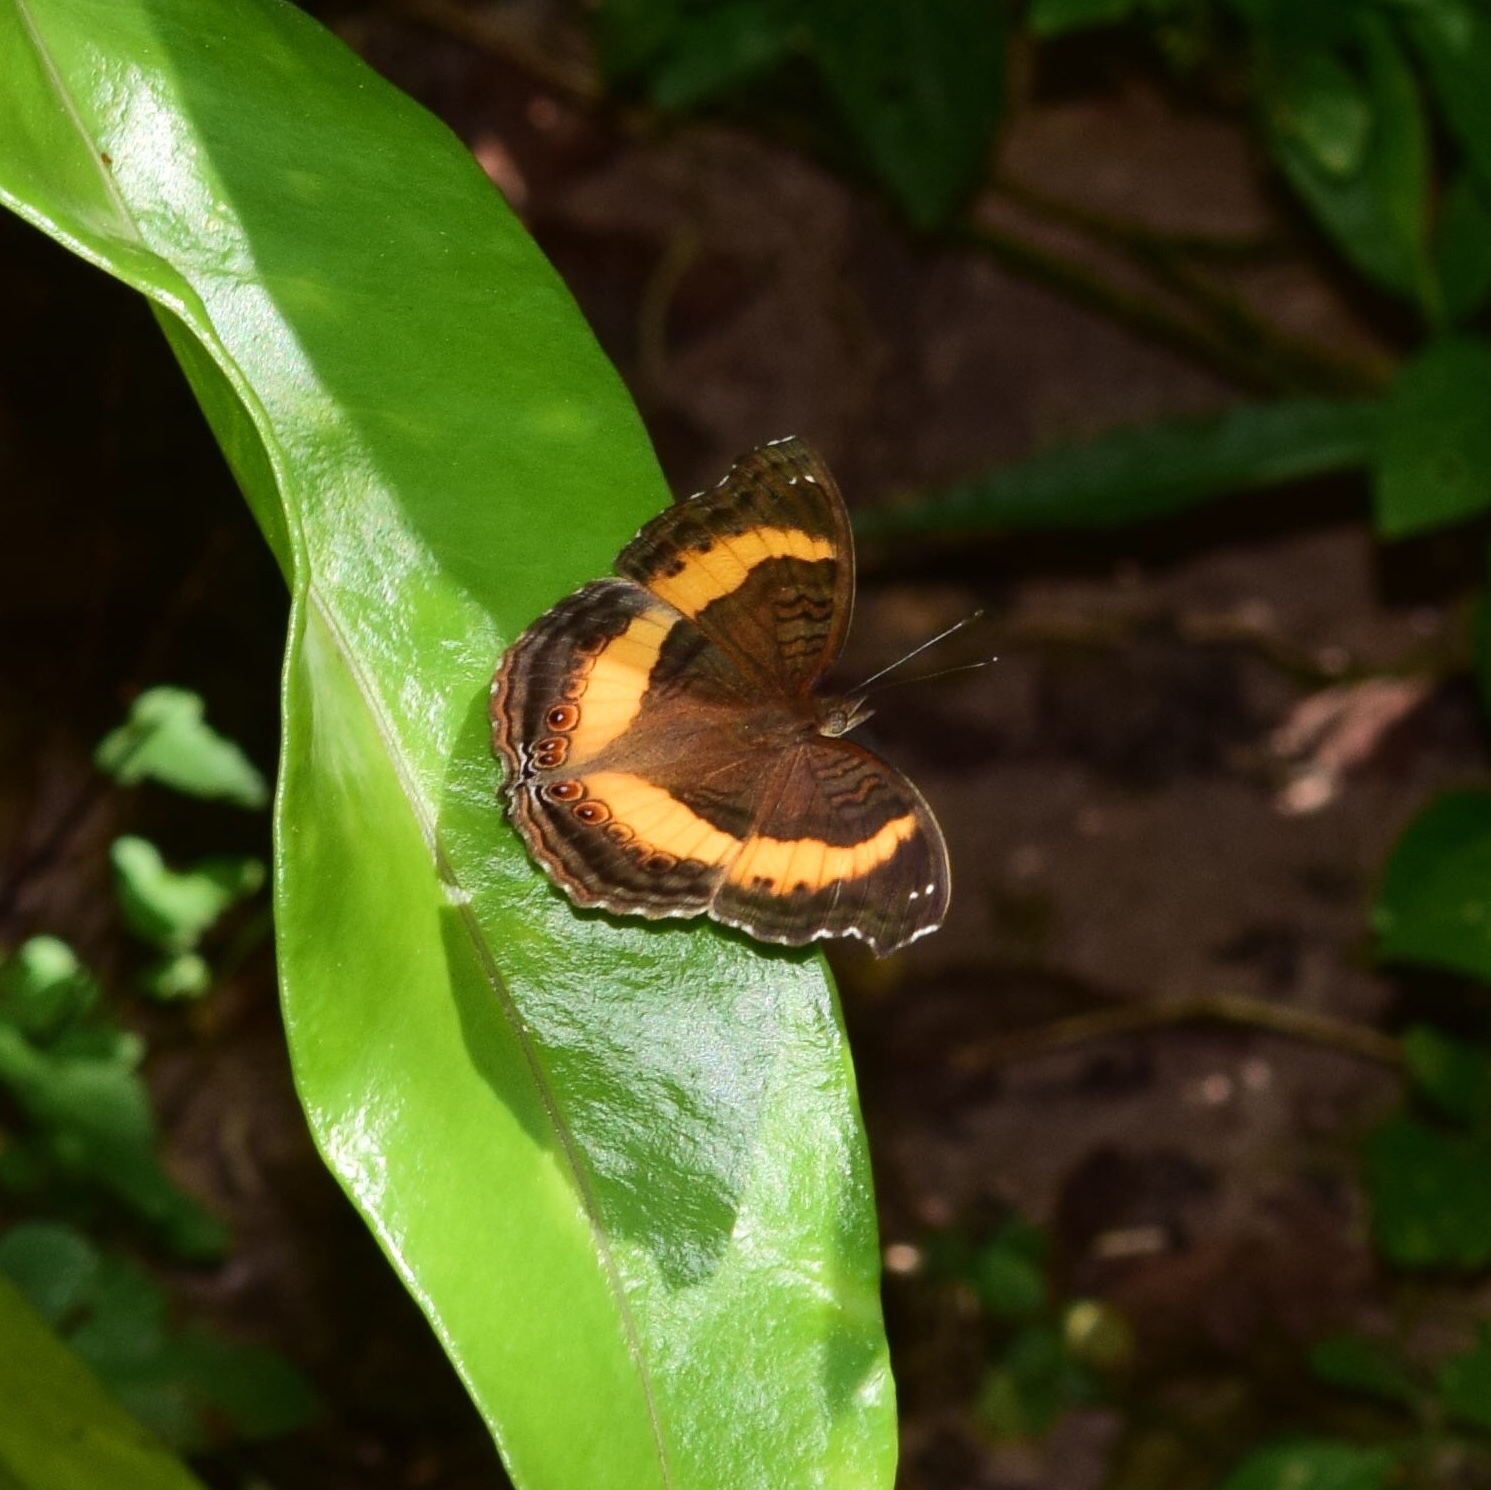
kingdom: Animalia
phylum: Arthropoda
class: Insecta
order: Lepidoptera
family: Nymphalidae
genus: Junonia
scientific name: Junonia terea
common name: Soldier pansy
